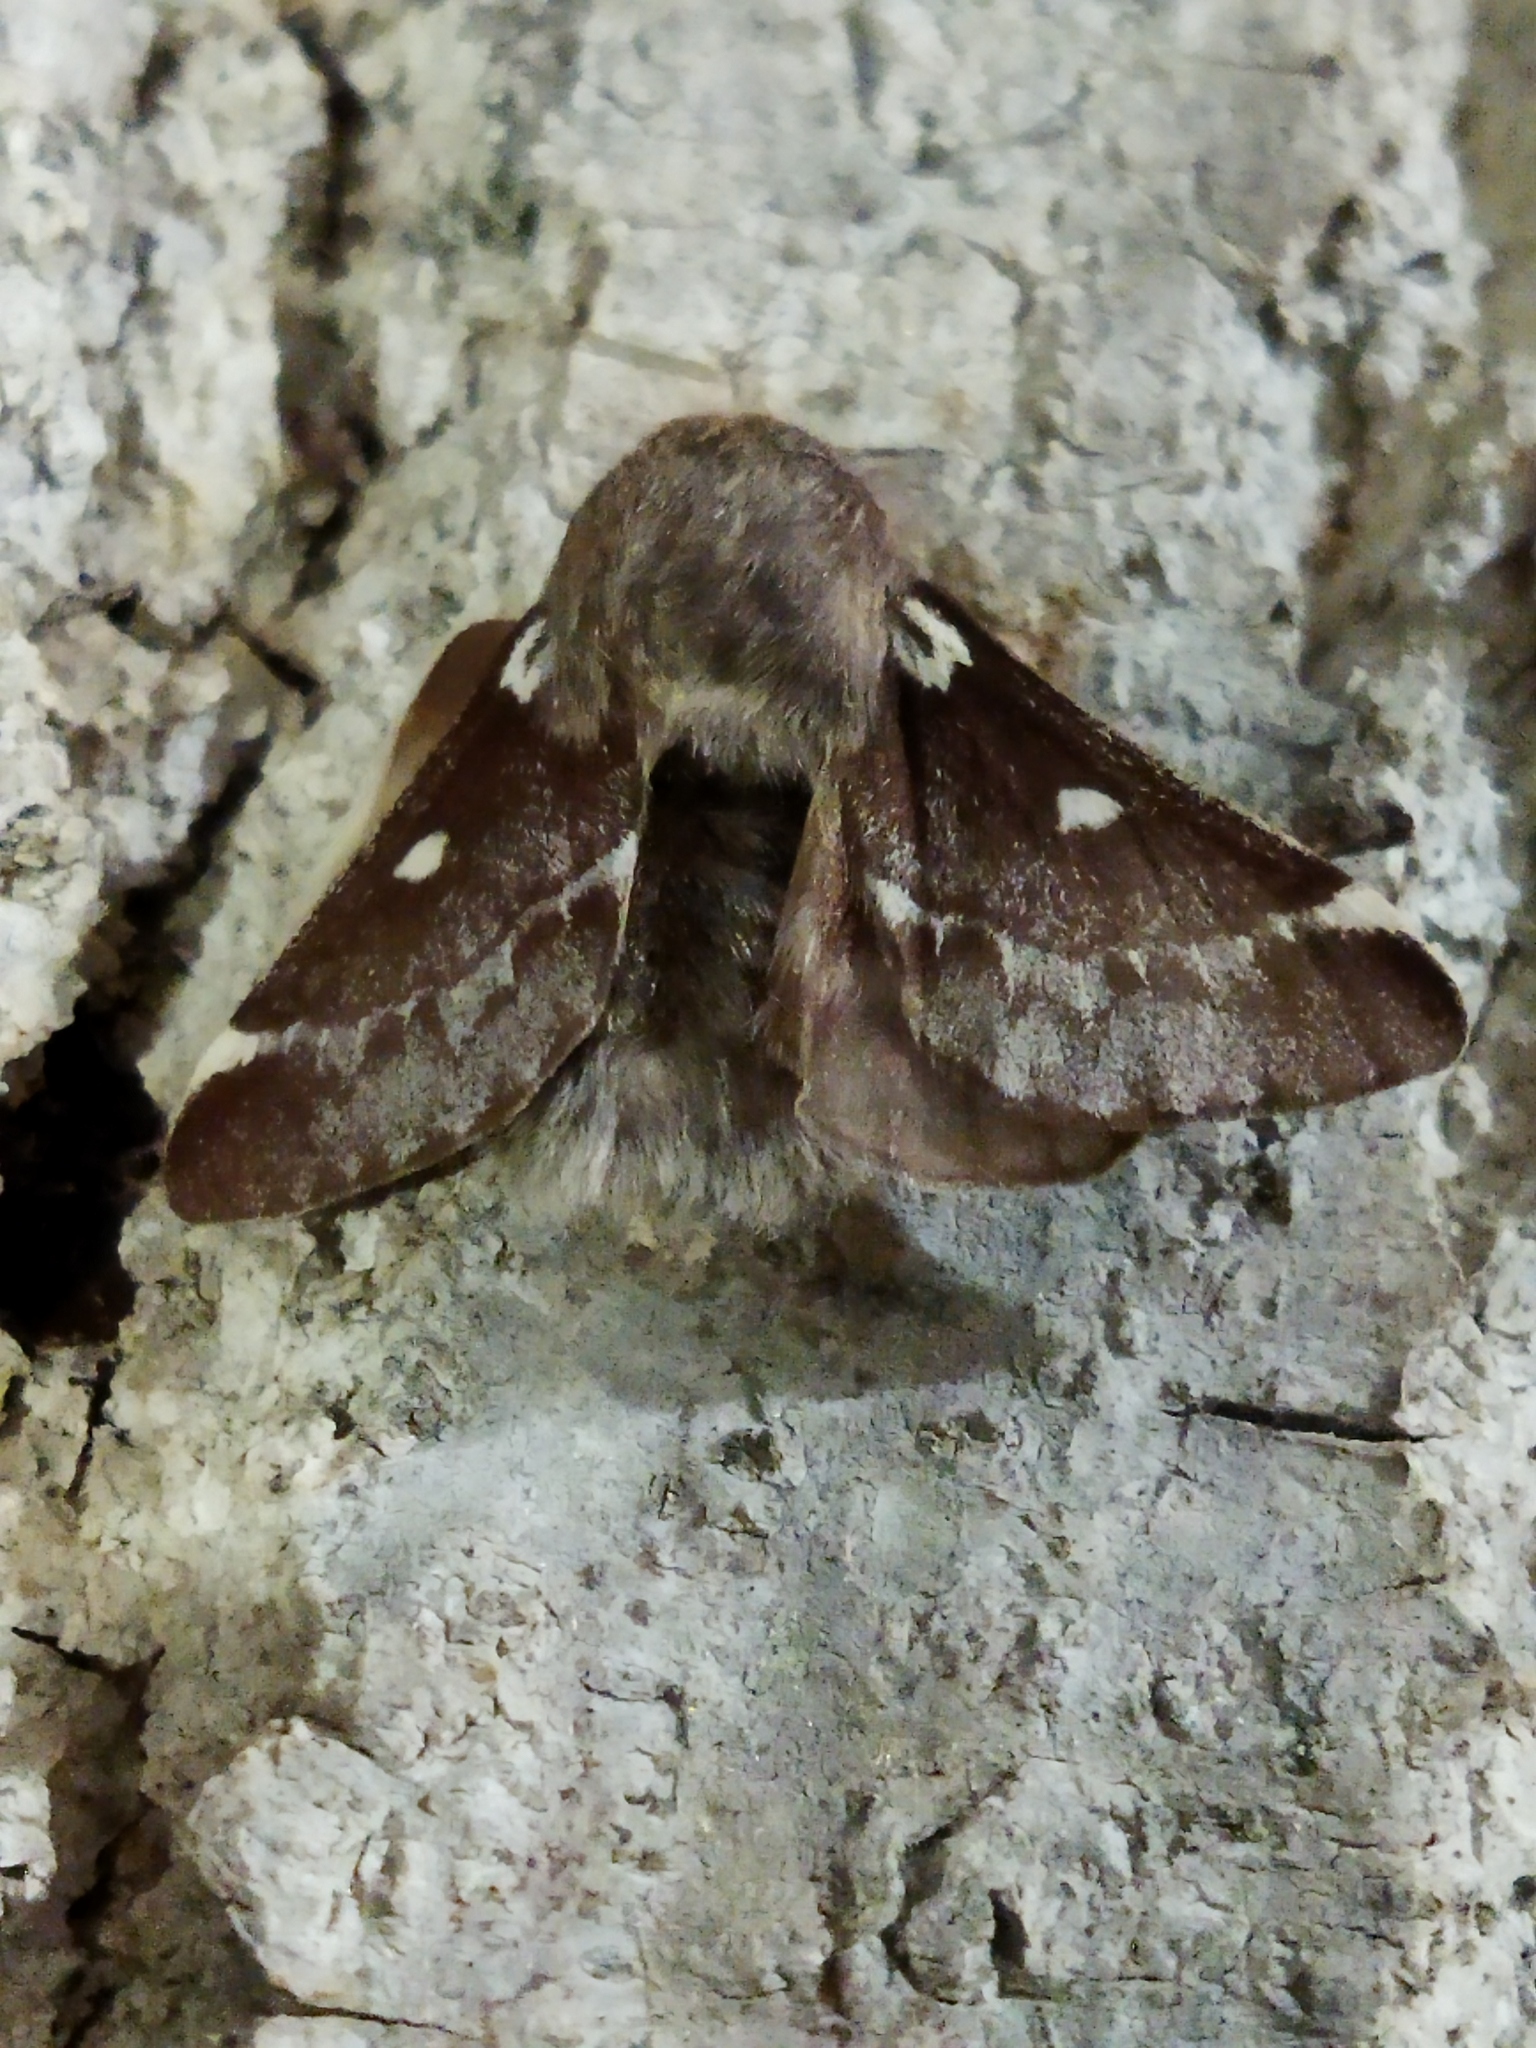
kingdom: Animalia
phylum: Arthropoda
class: Insecta
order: Lepidoptera
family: Lasiocampidae
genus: Eriogaster
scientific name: Eriogaster lanestris
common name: Small eggar
